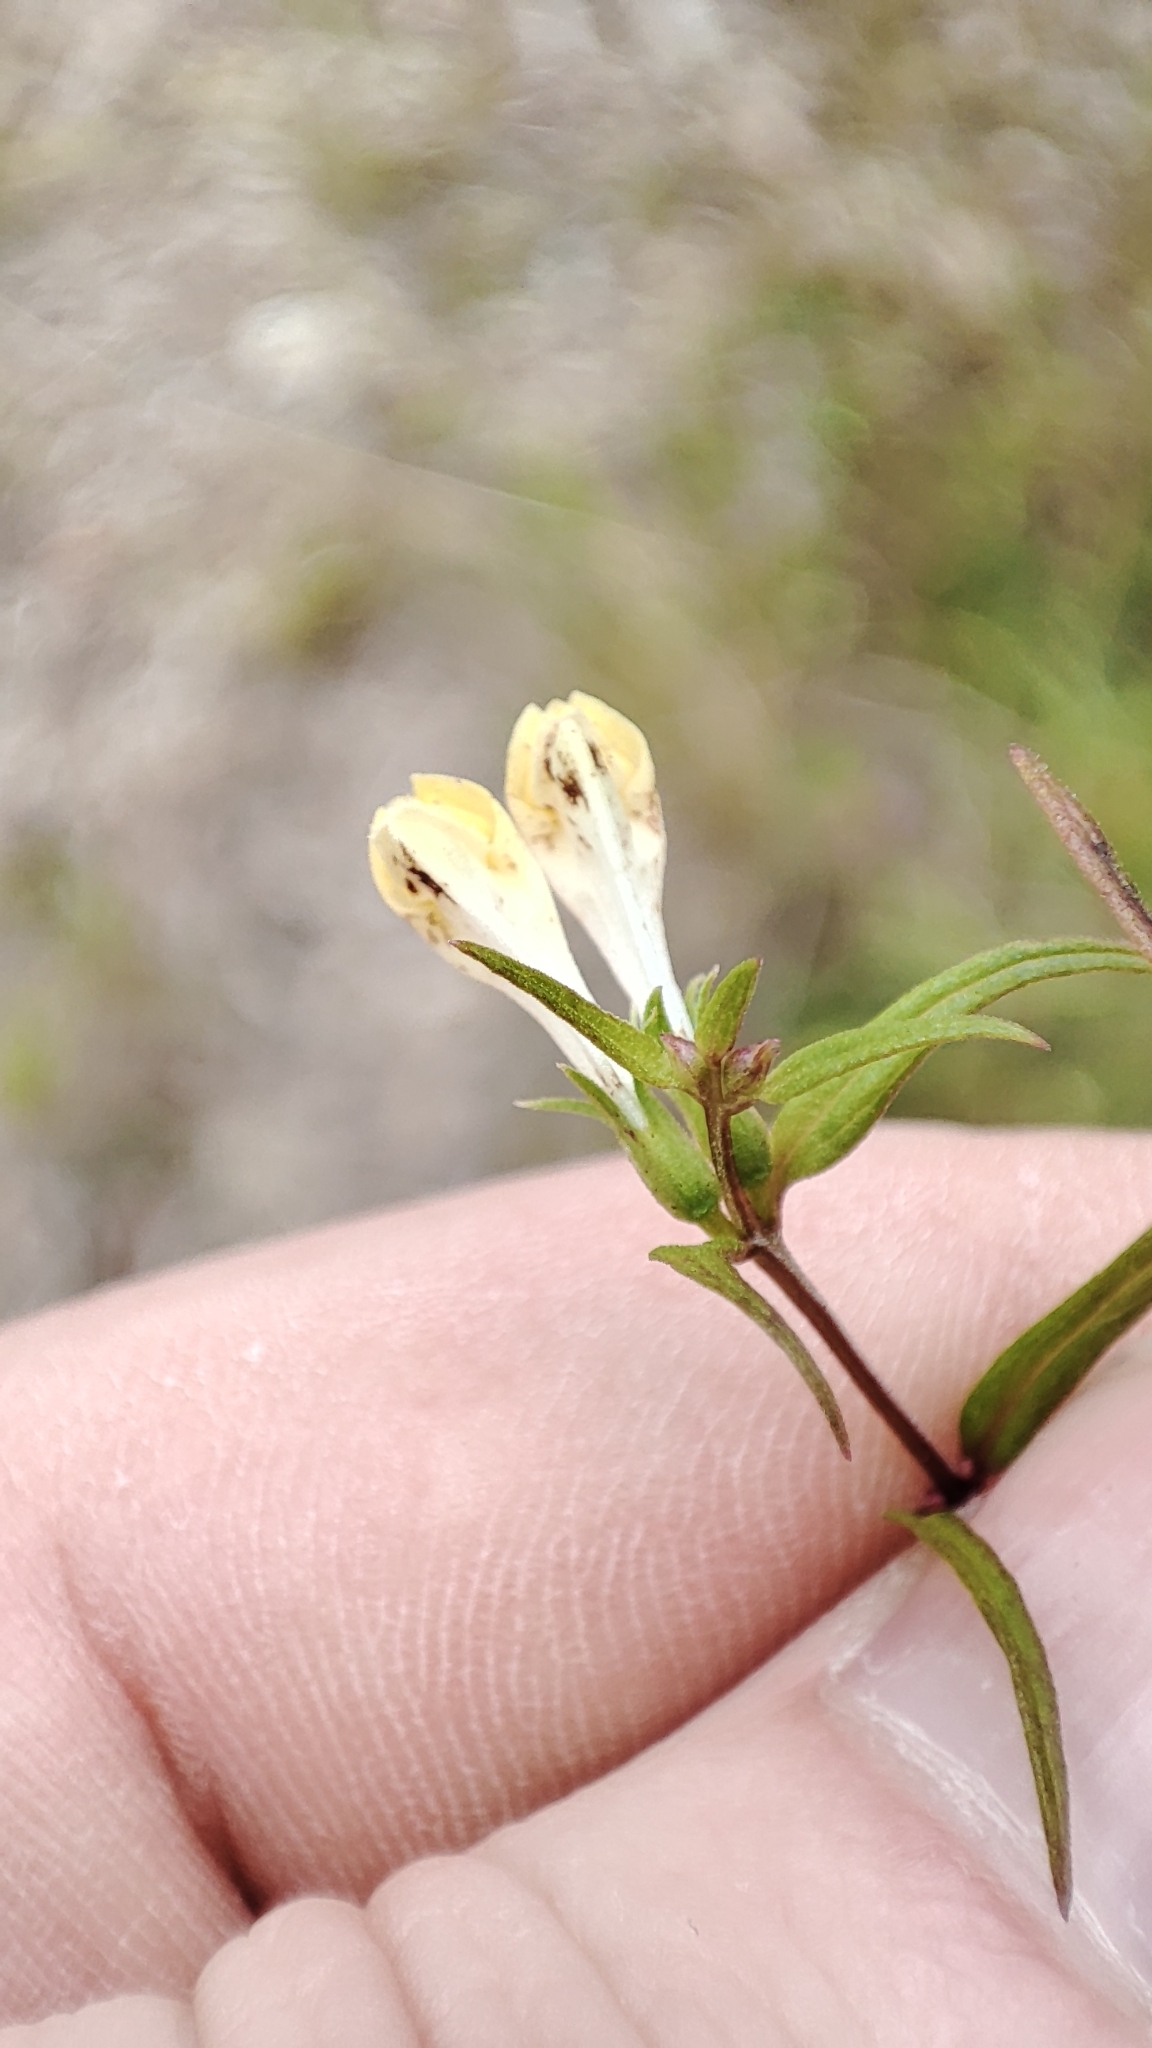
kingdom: Plantae
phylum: Tracheophyta
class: Magnoliopsida
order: Lamiales
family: Orobanchaceae
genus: Melampyrum
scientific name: Melampyrum pratense
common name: Common cow-wheat
